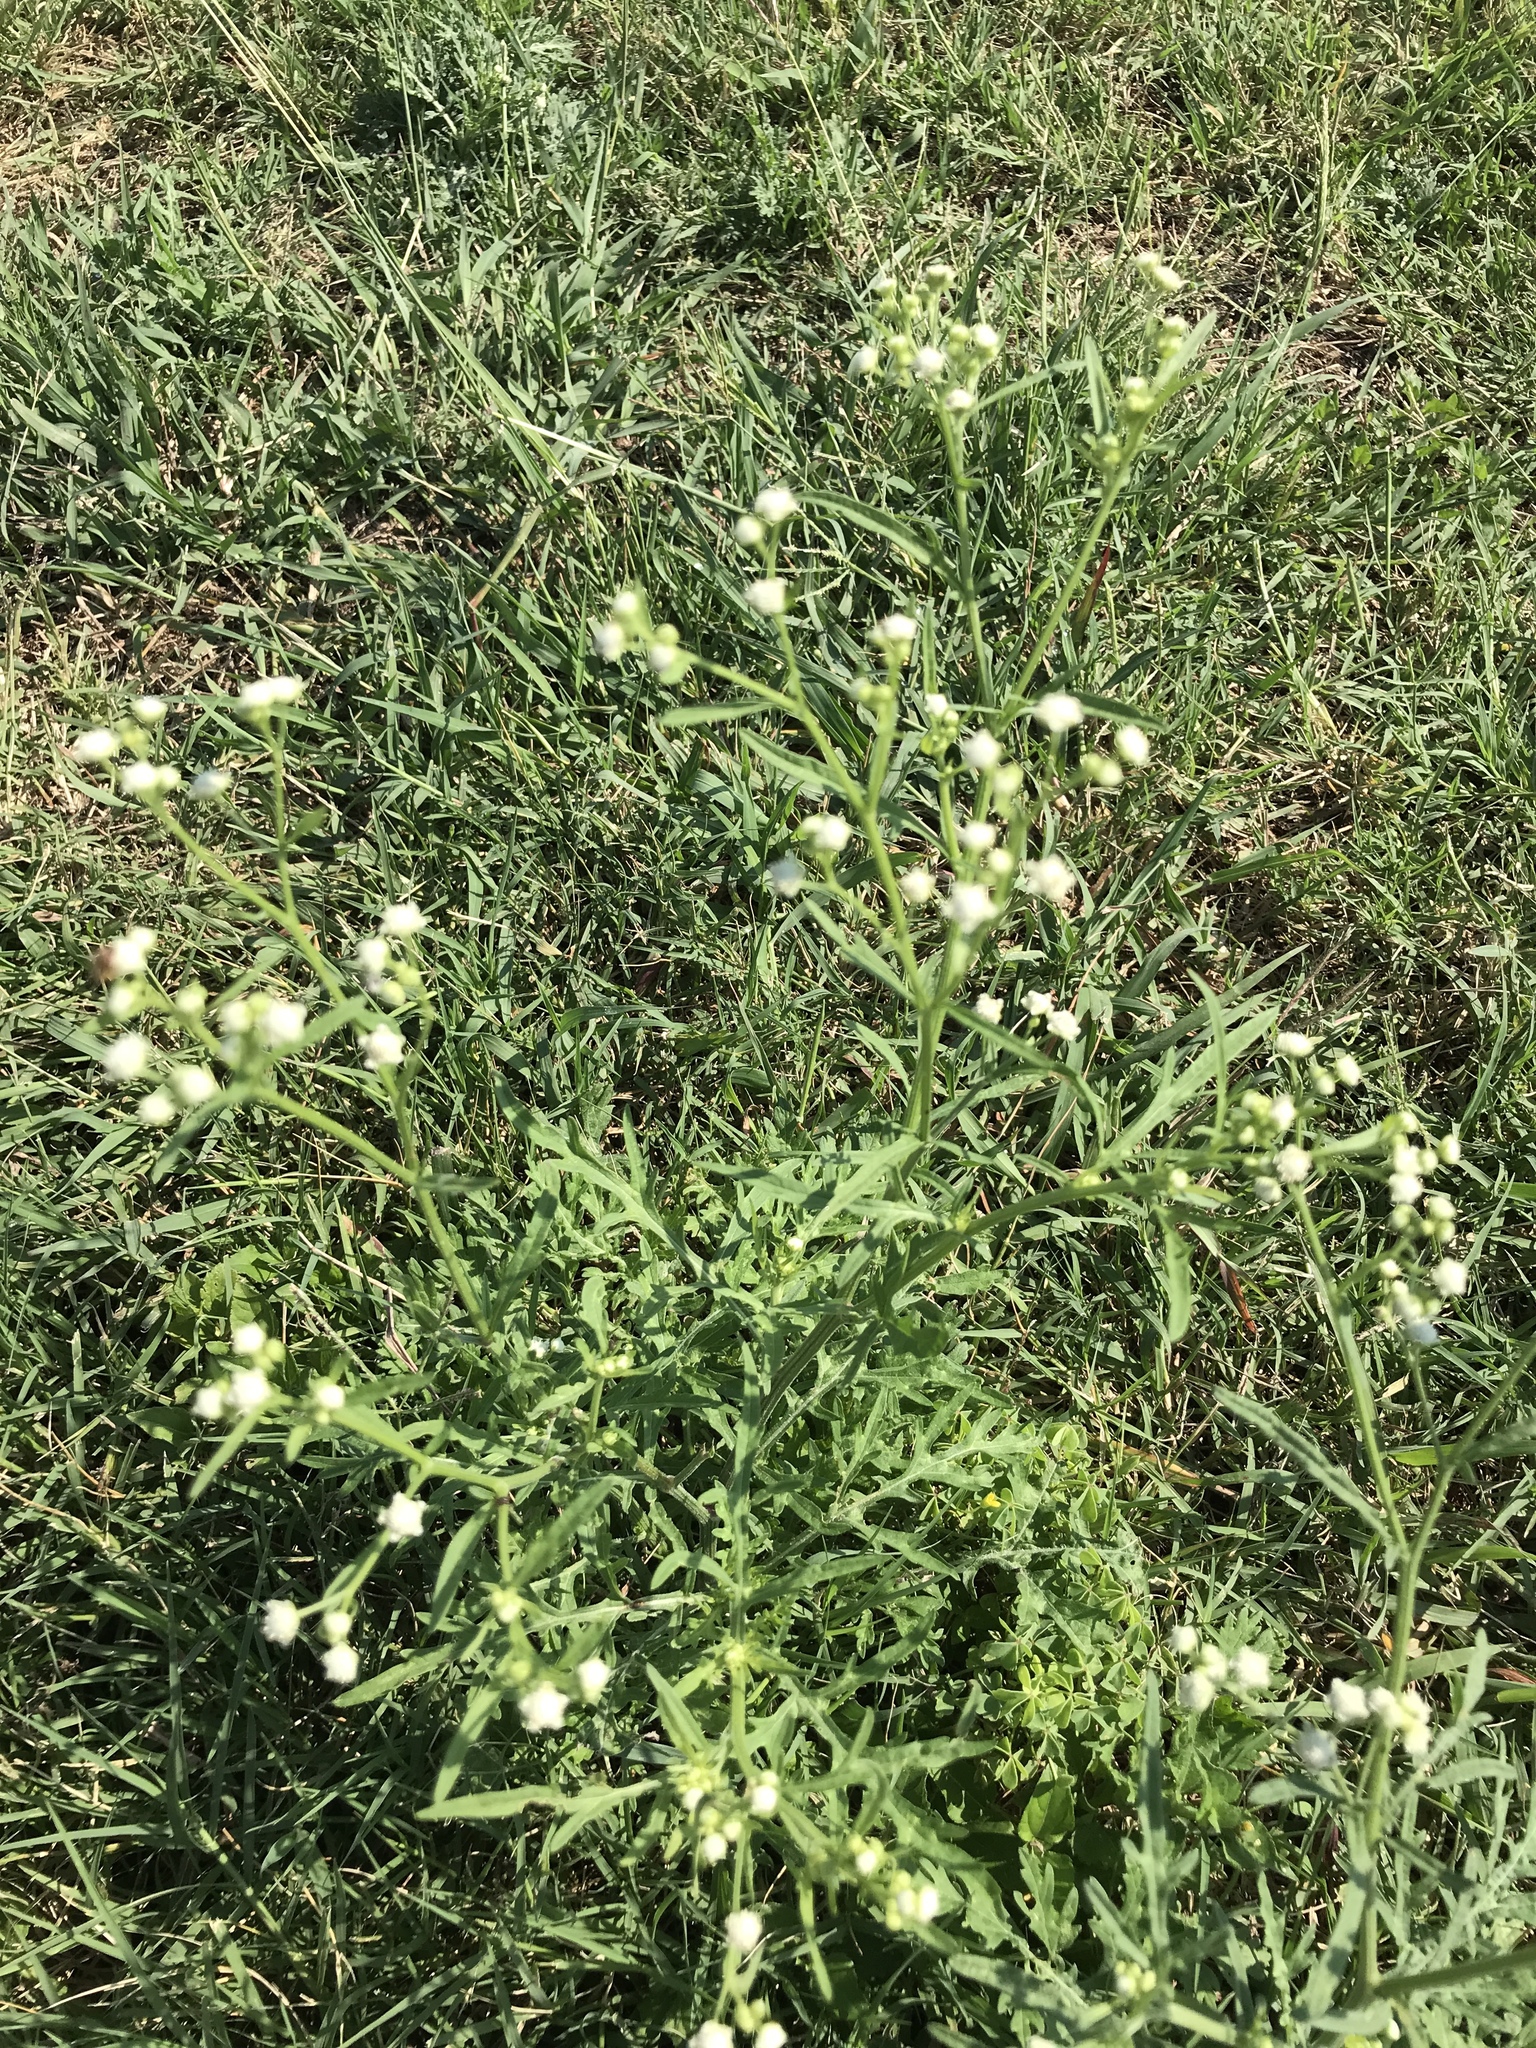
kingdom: Plantae
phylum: Tracheophyta
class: Magnoliopsida
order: Asterales
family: Asteraceae
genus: Parthenium
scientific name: Parthenium hysterophorus
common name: Santa maria feverfew
